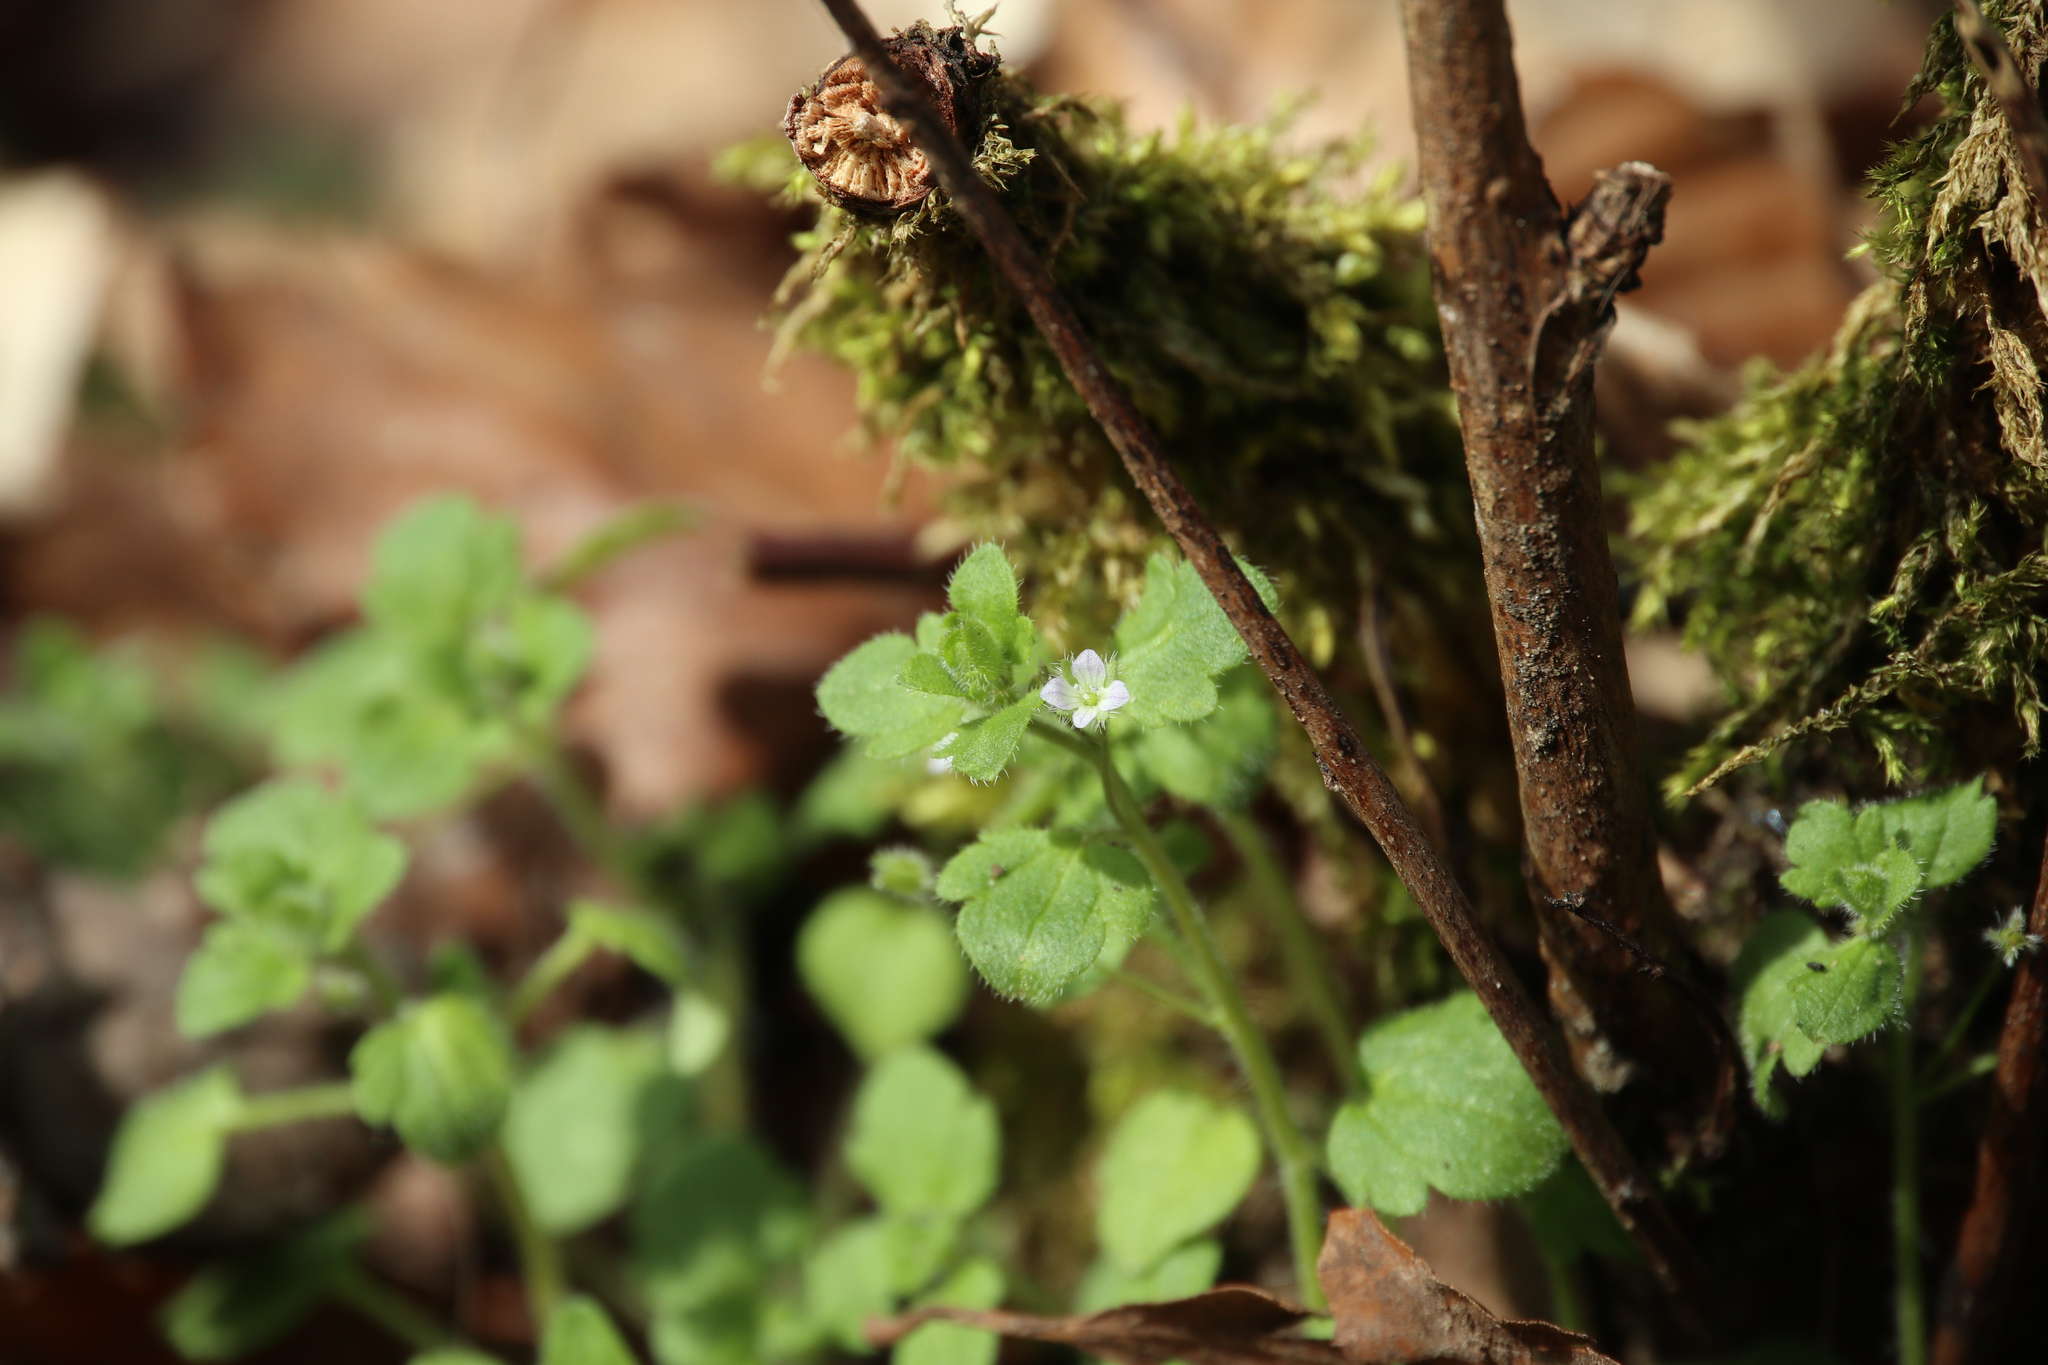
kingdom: Plantae
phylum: Tracheophyta
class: Magnoliopsida
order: Lamiales
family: Plantaginaceae
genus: Veronica
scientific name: Veronica hederifolia
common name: Ivy-leaved speedwell
